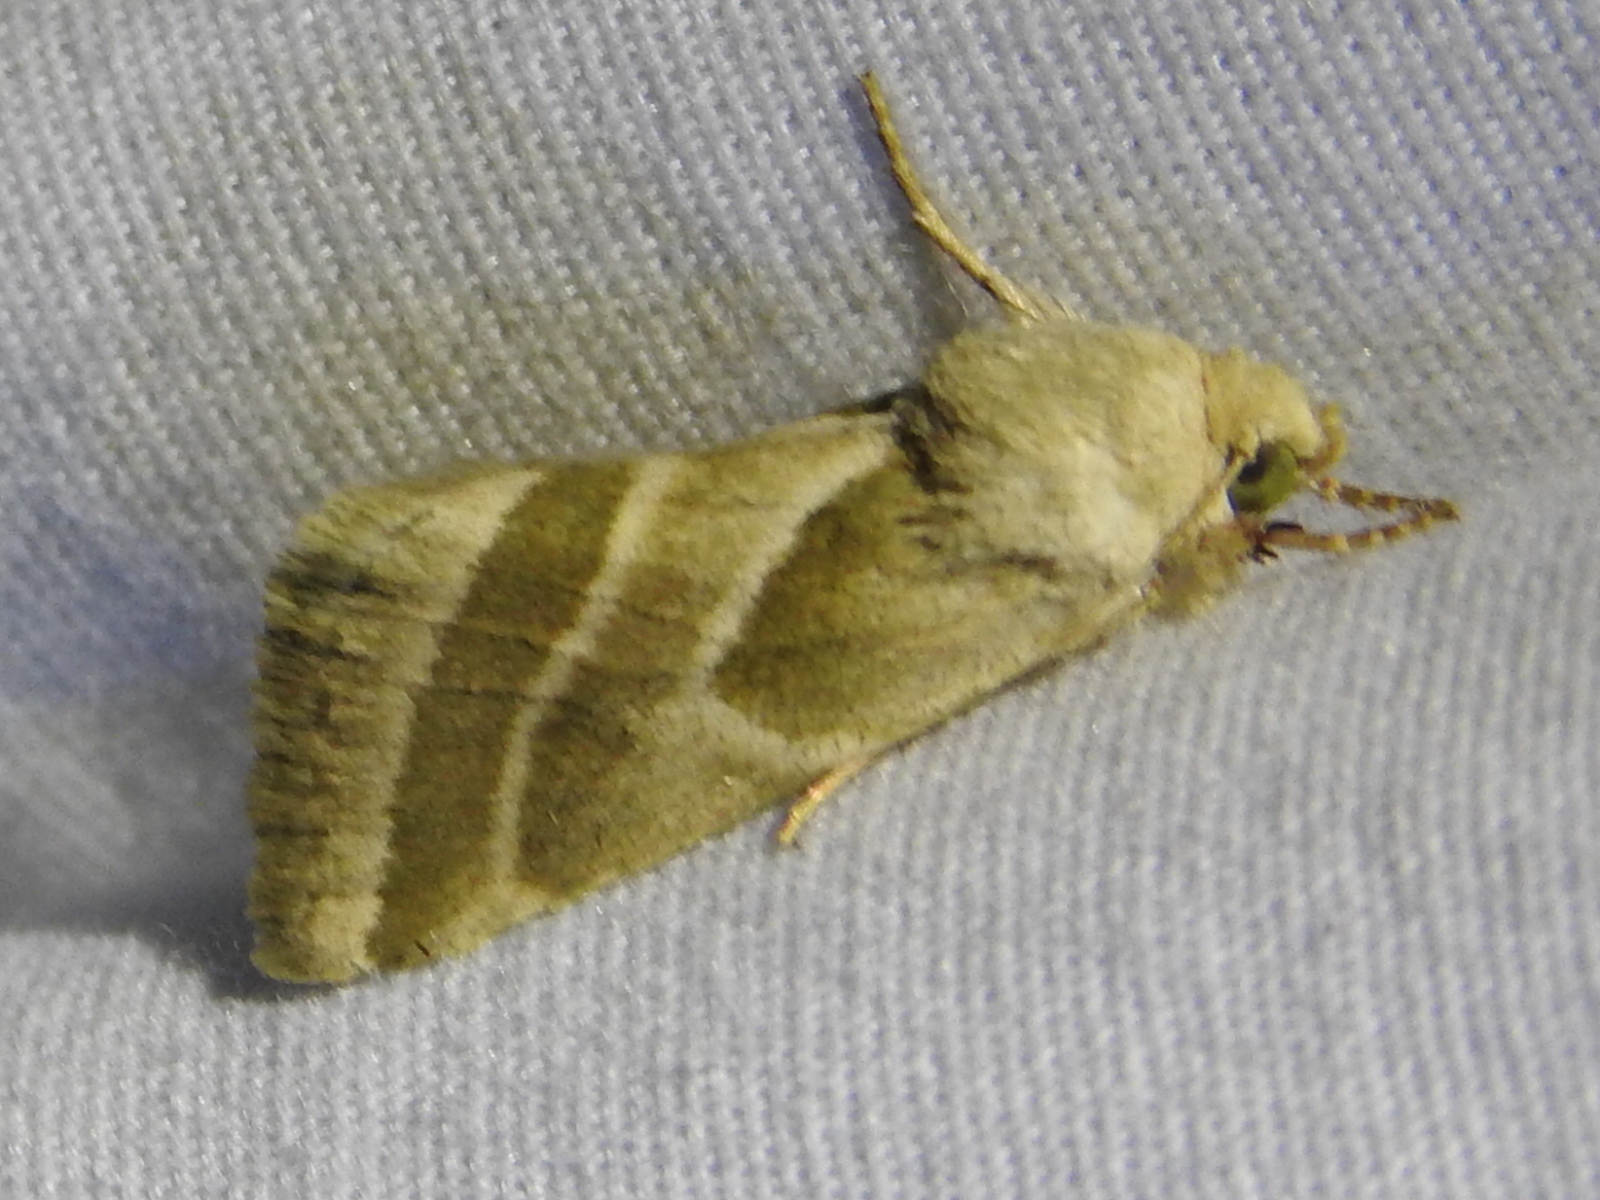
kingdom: Animalia
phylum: Arthropoda
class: Insecta
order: Lepidoptera
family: Noctuidae
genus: Schinia
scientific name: Schinia trifascia
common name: Three-lined flower moth
